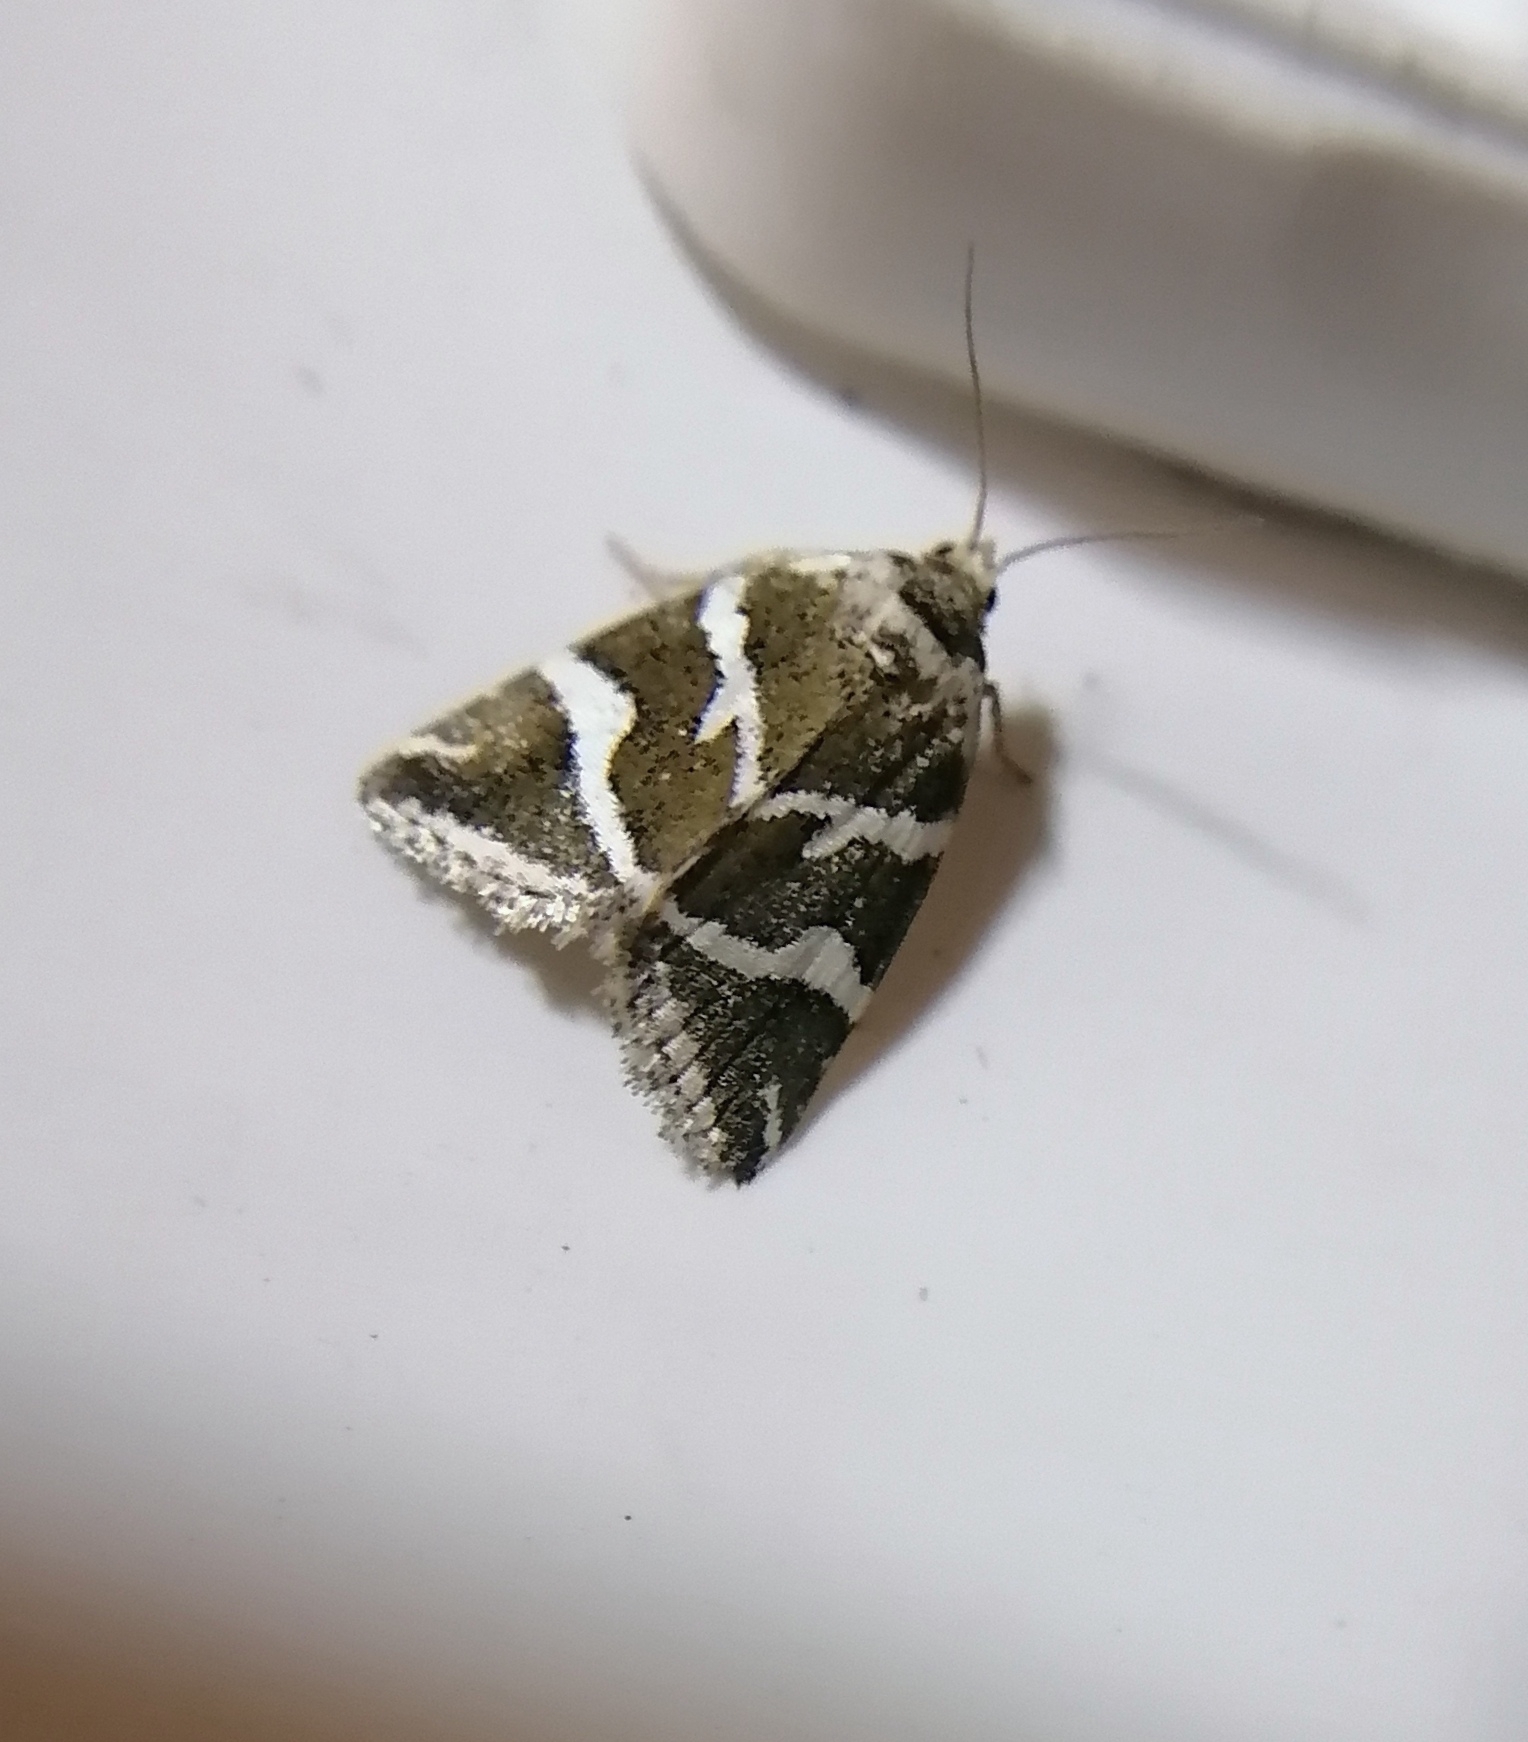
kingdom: Animalia
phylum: Arthropoda
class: Insecta
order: Lepidoptera
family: Noctuidae
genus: Deltote
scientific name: Deltote bankiana
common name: Silver barred
